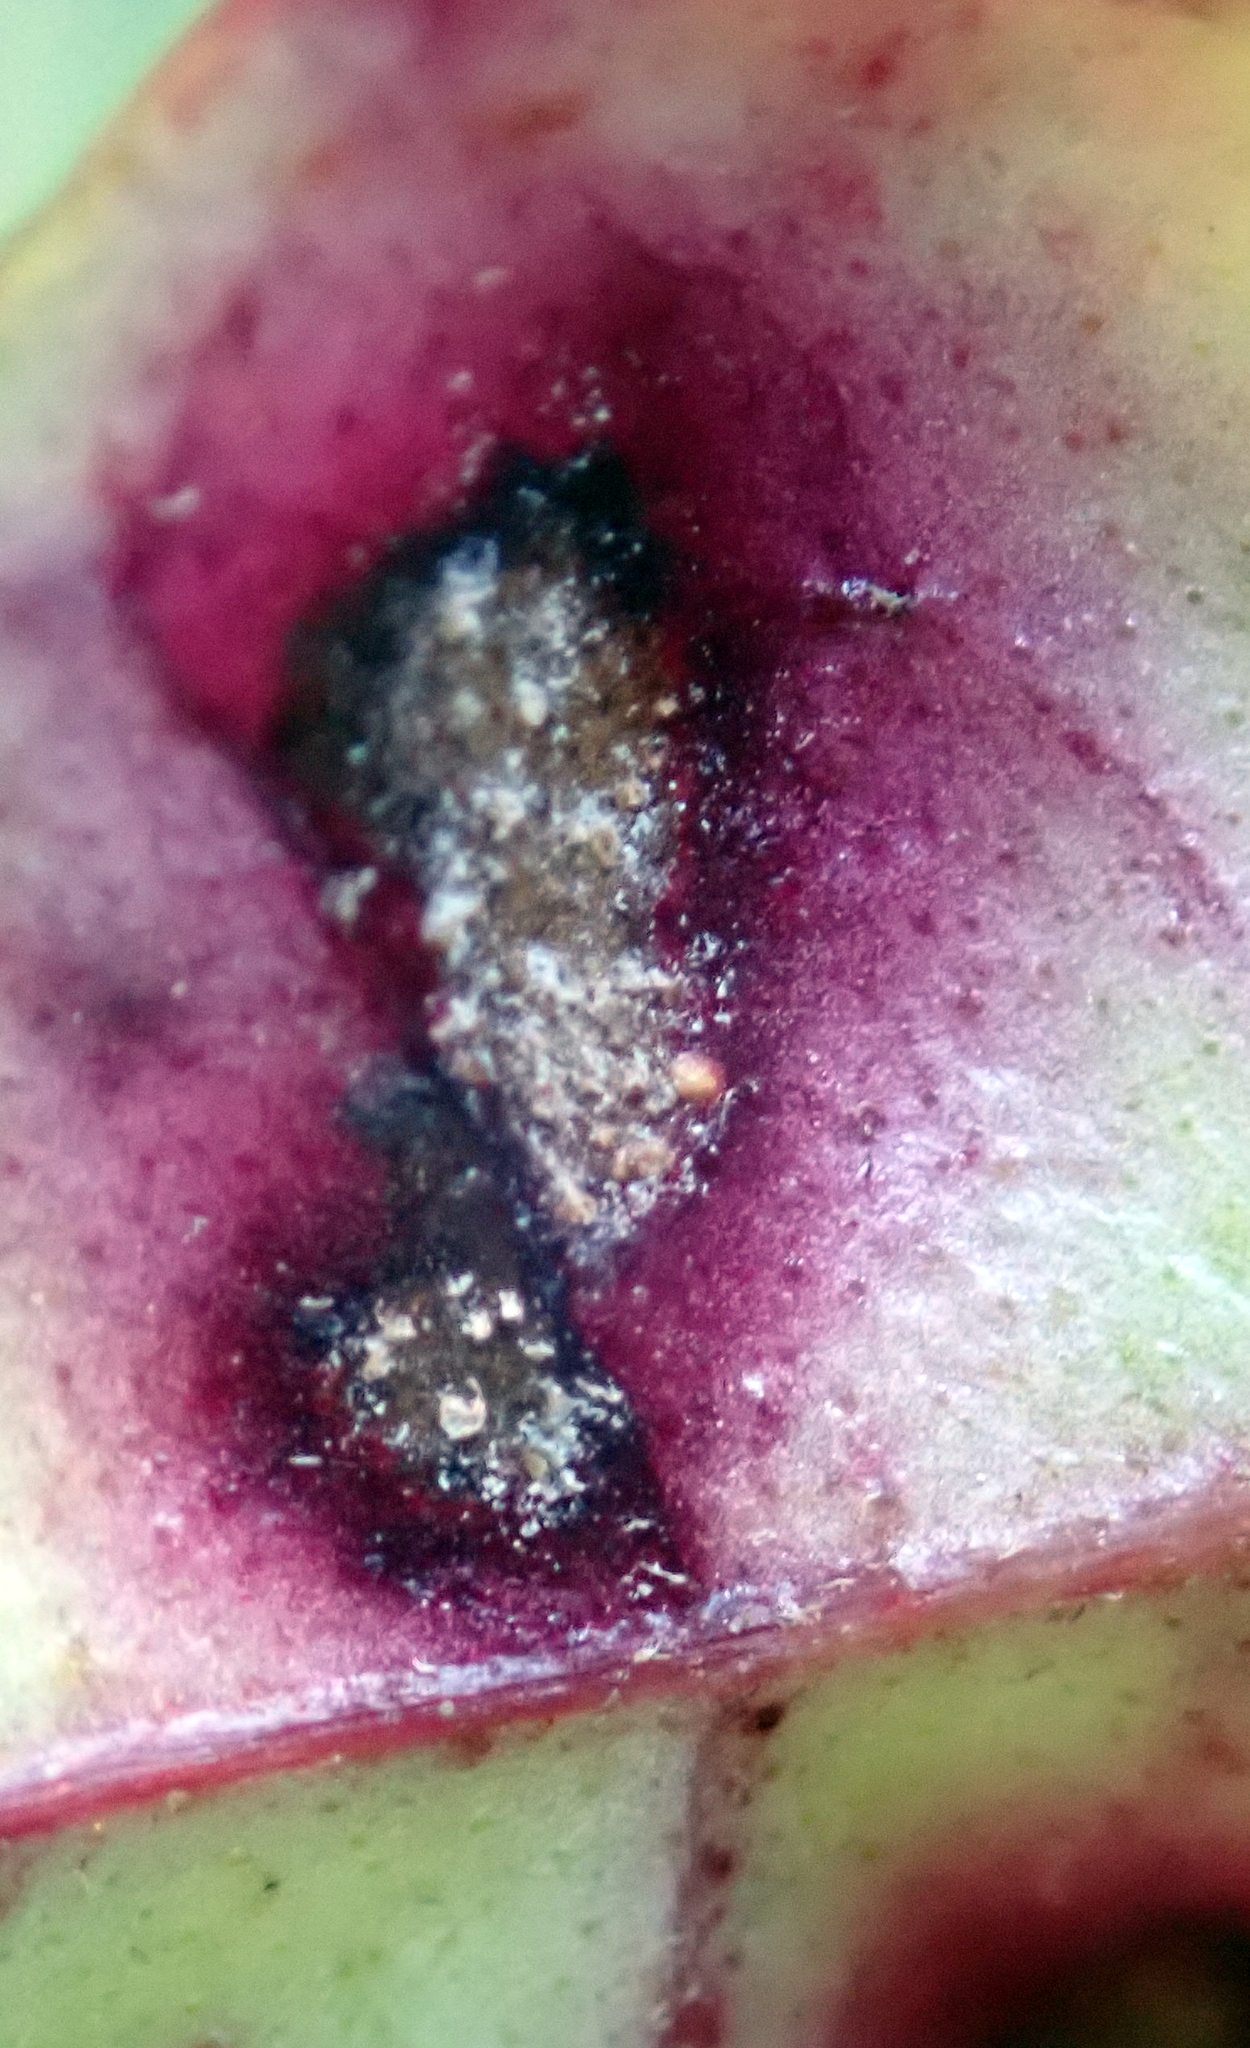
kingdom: Fungi
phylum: Basidiomycota
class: Pucciniomycetes
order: Pucciniales
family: Sphaerophragmiaceae
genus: Austropuccinia
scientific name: Austropuccinia psidii
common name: Myrtle rust
